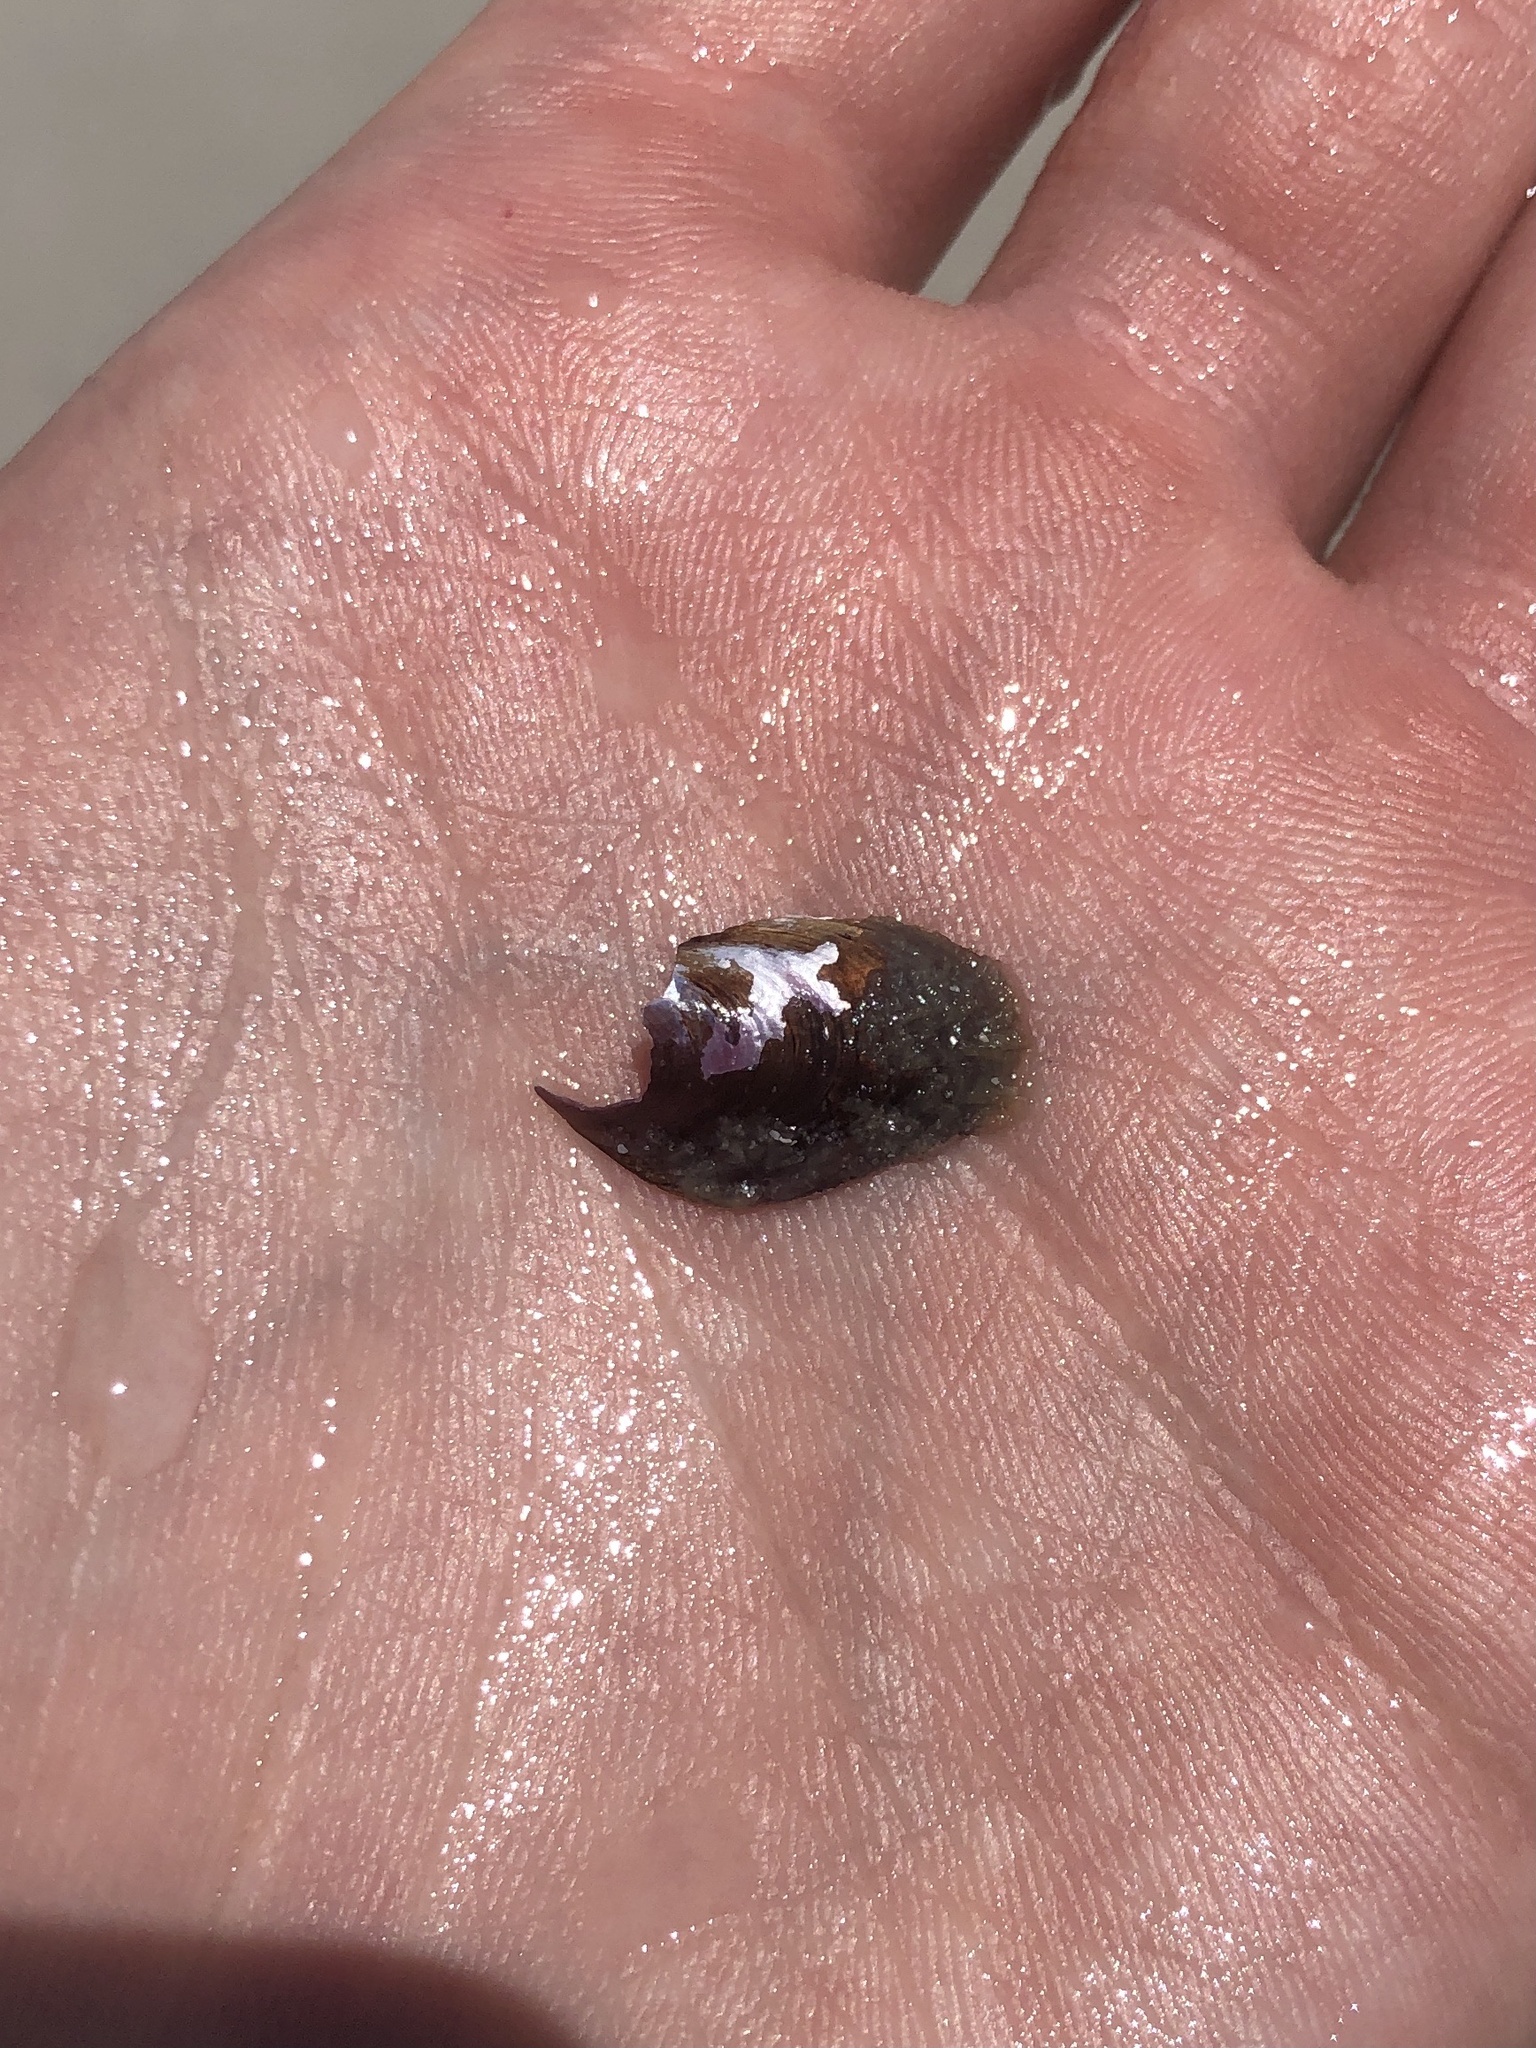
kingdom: Animalia
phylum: Mollusca
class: Bivalvia
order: Mytilida
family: Mytilidae
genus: Modiolus
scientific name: Modiolus squamosus
